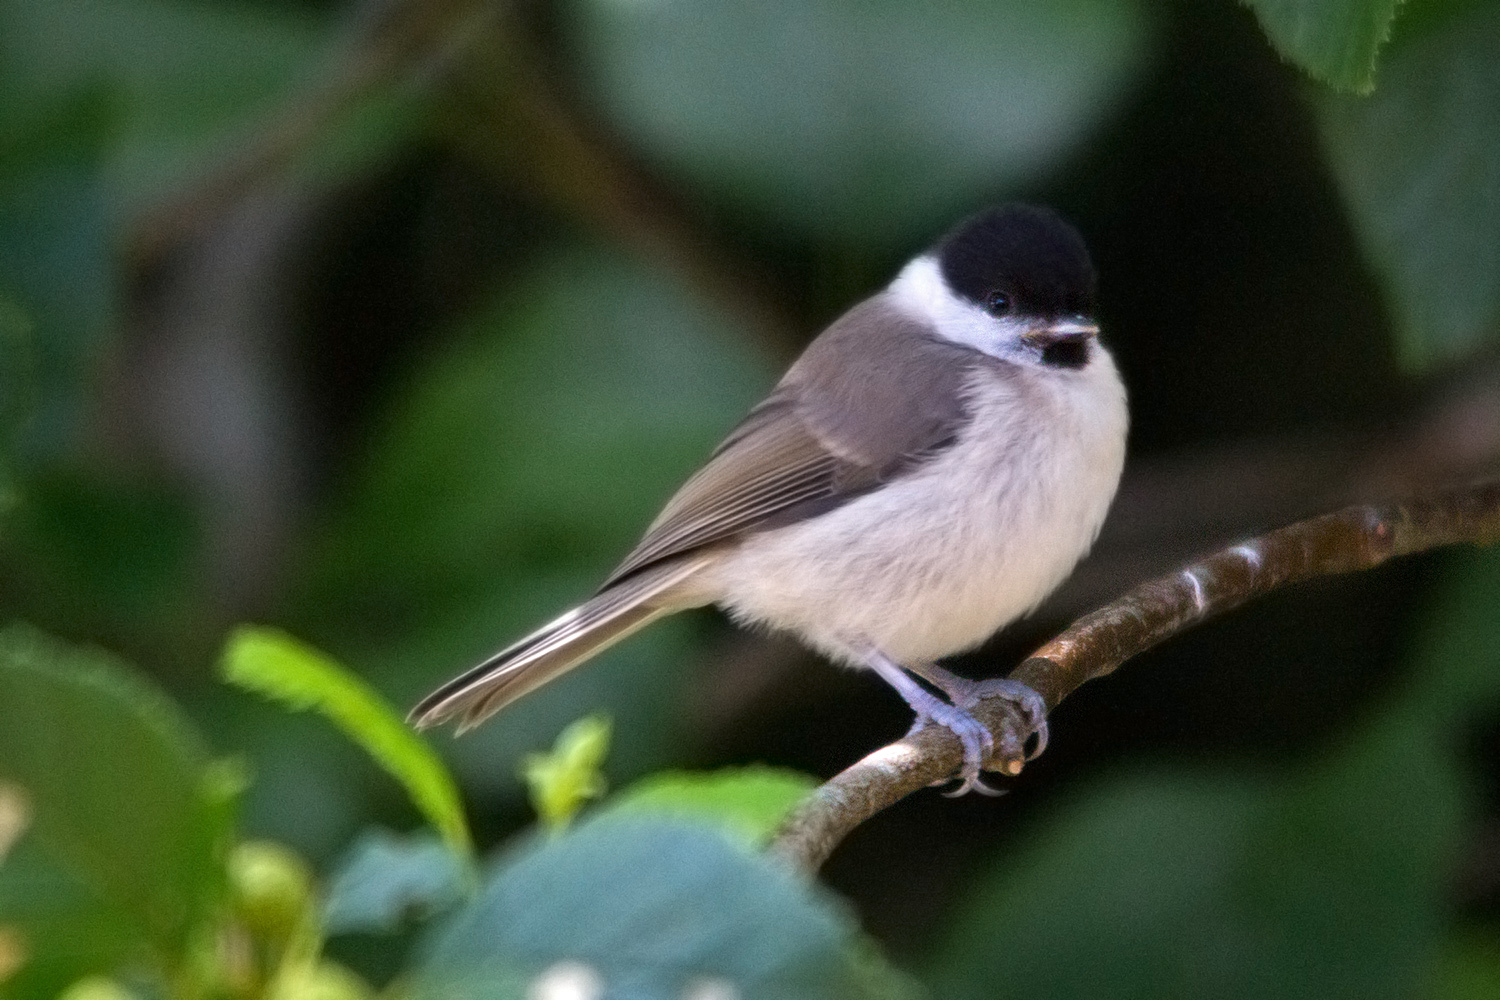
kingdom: Animalia
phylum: Chordata
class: Aves
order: Passeriformes
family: Paridae
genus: Poecile
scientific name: Poecile palustris
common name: Marsh tit
